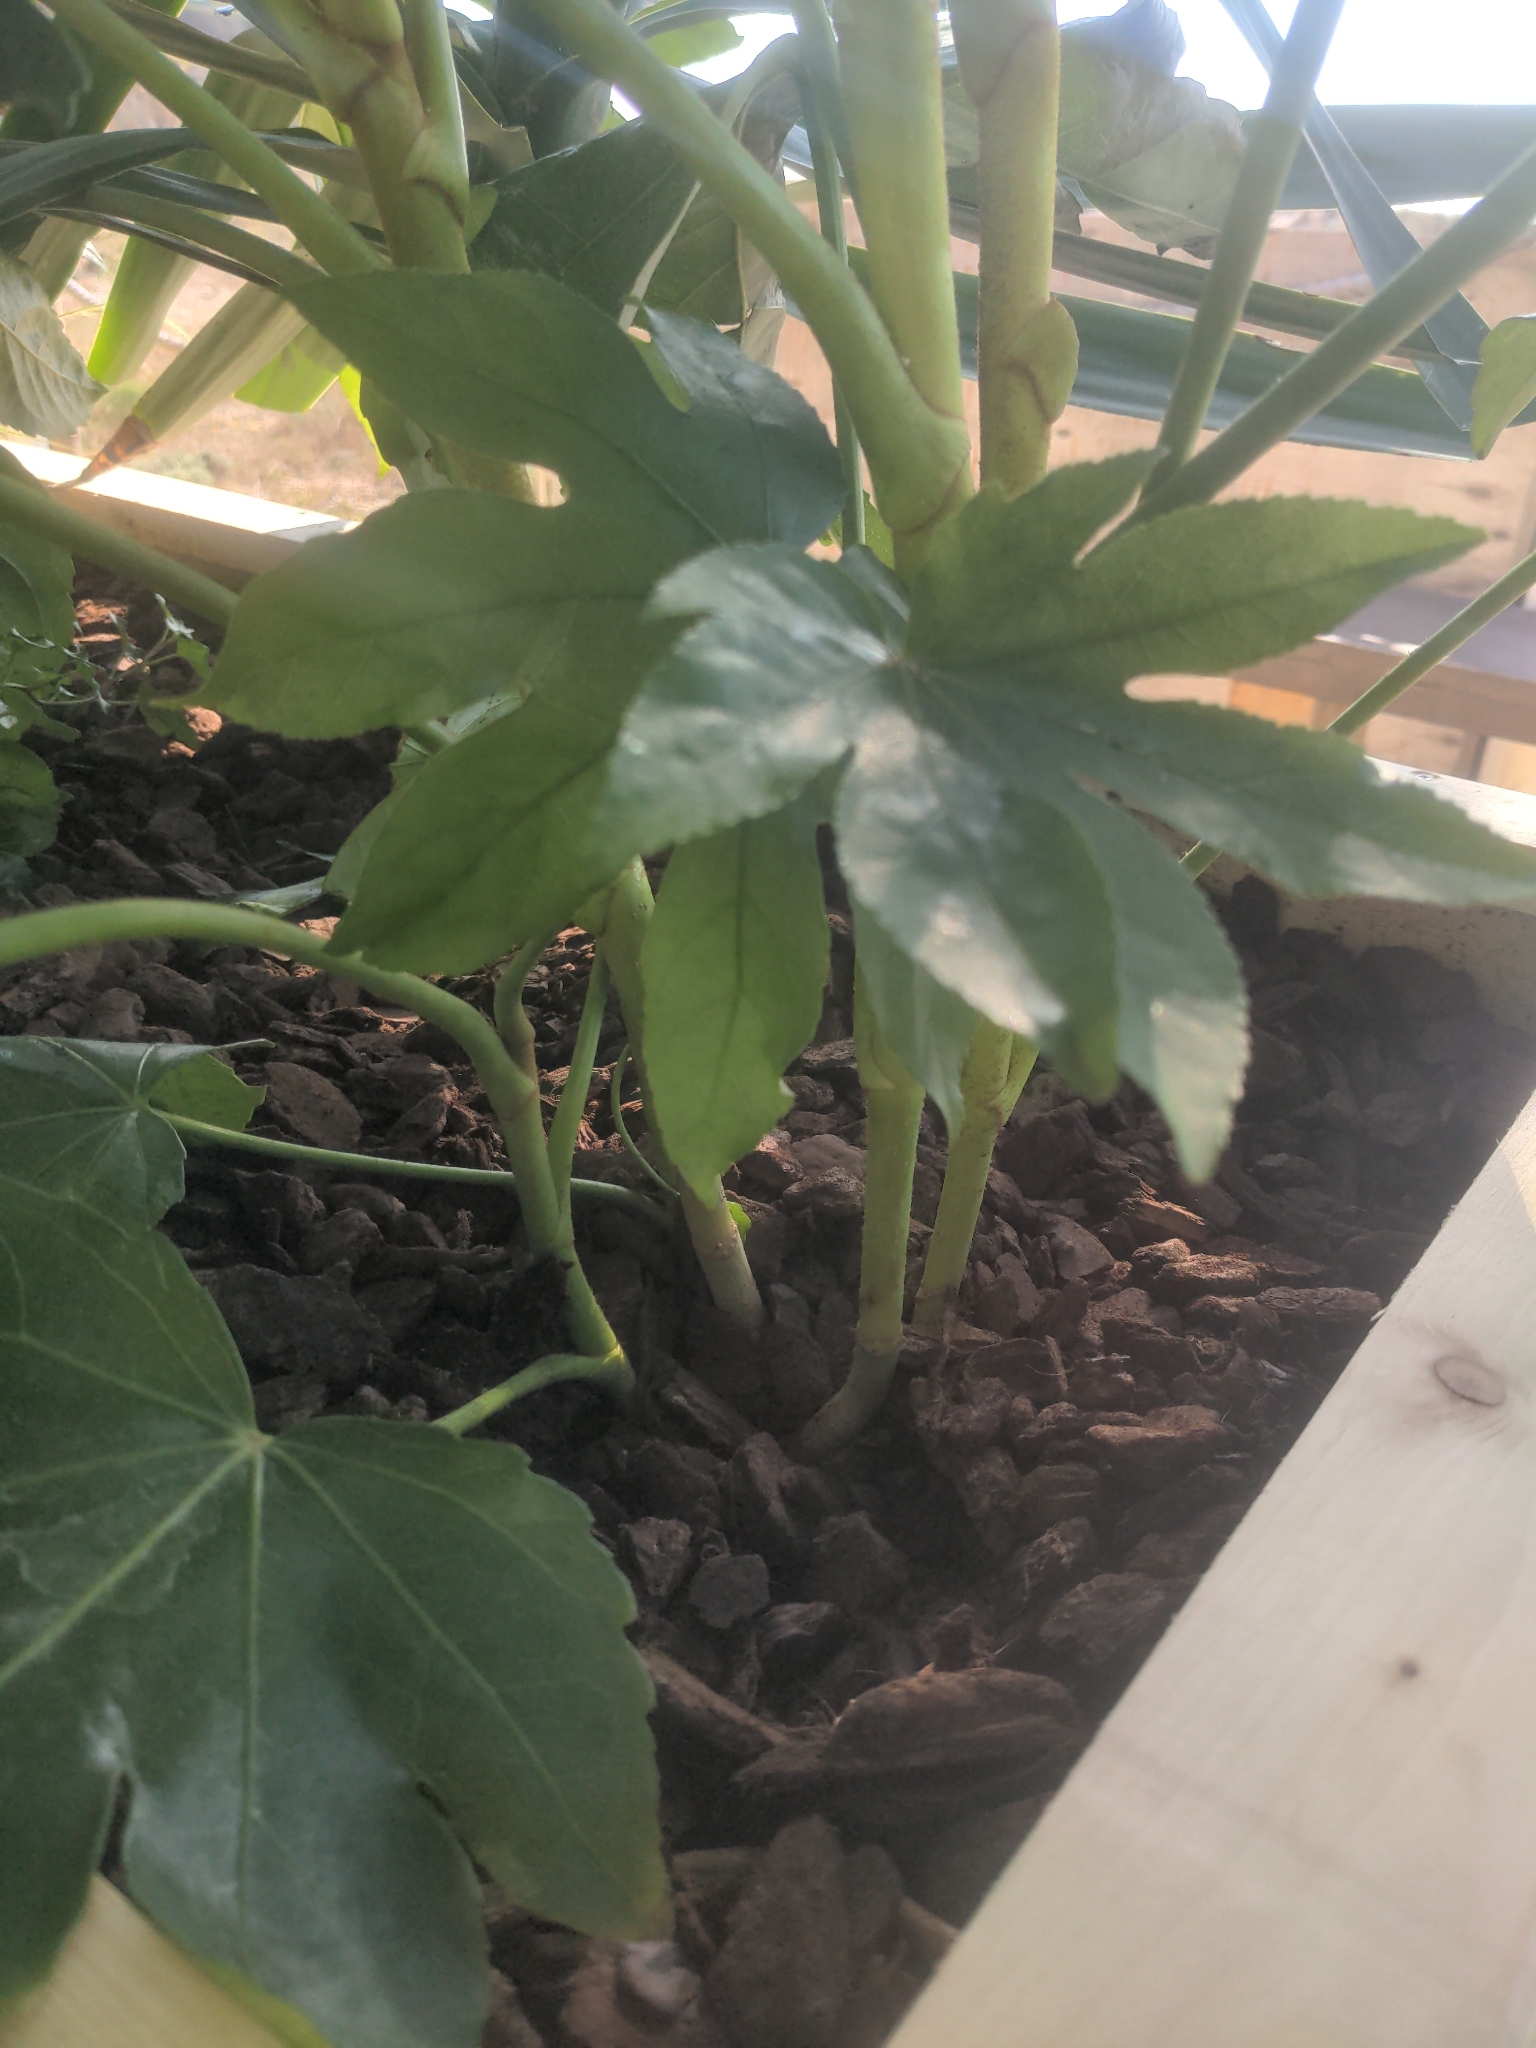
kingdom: Plantae
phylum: Tracheophyta
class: Magnoliopsida
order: Apiales
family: Araliaceae
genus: Fatsia
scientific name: Fatsia japonica
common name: Fatsia
